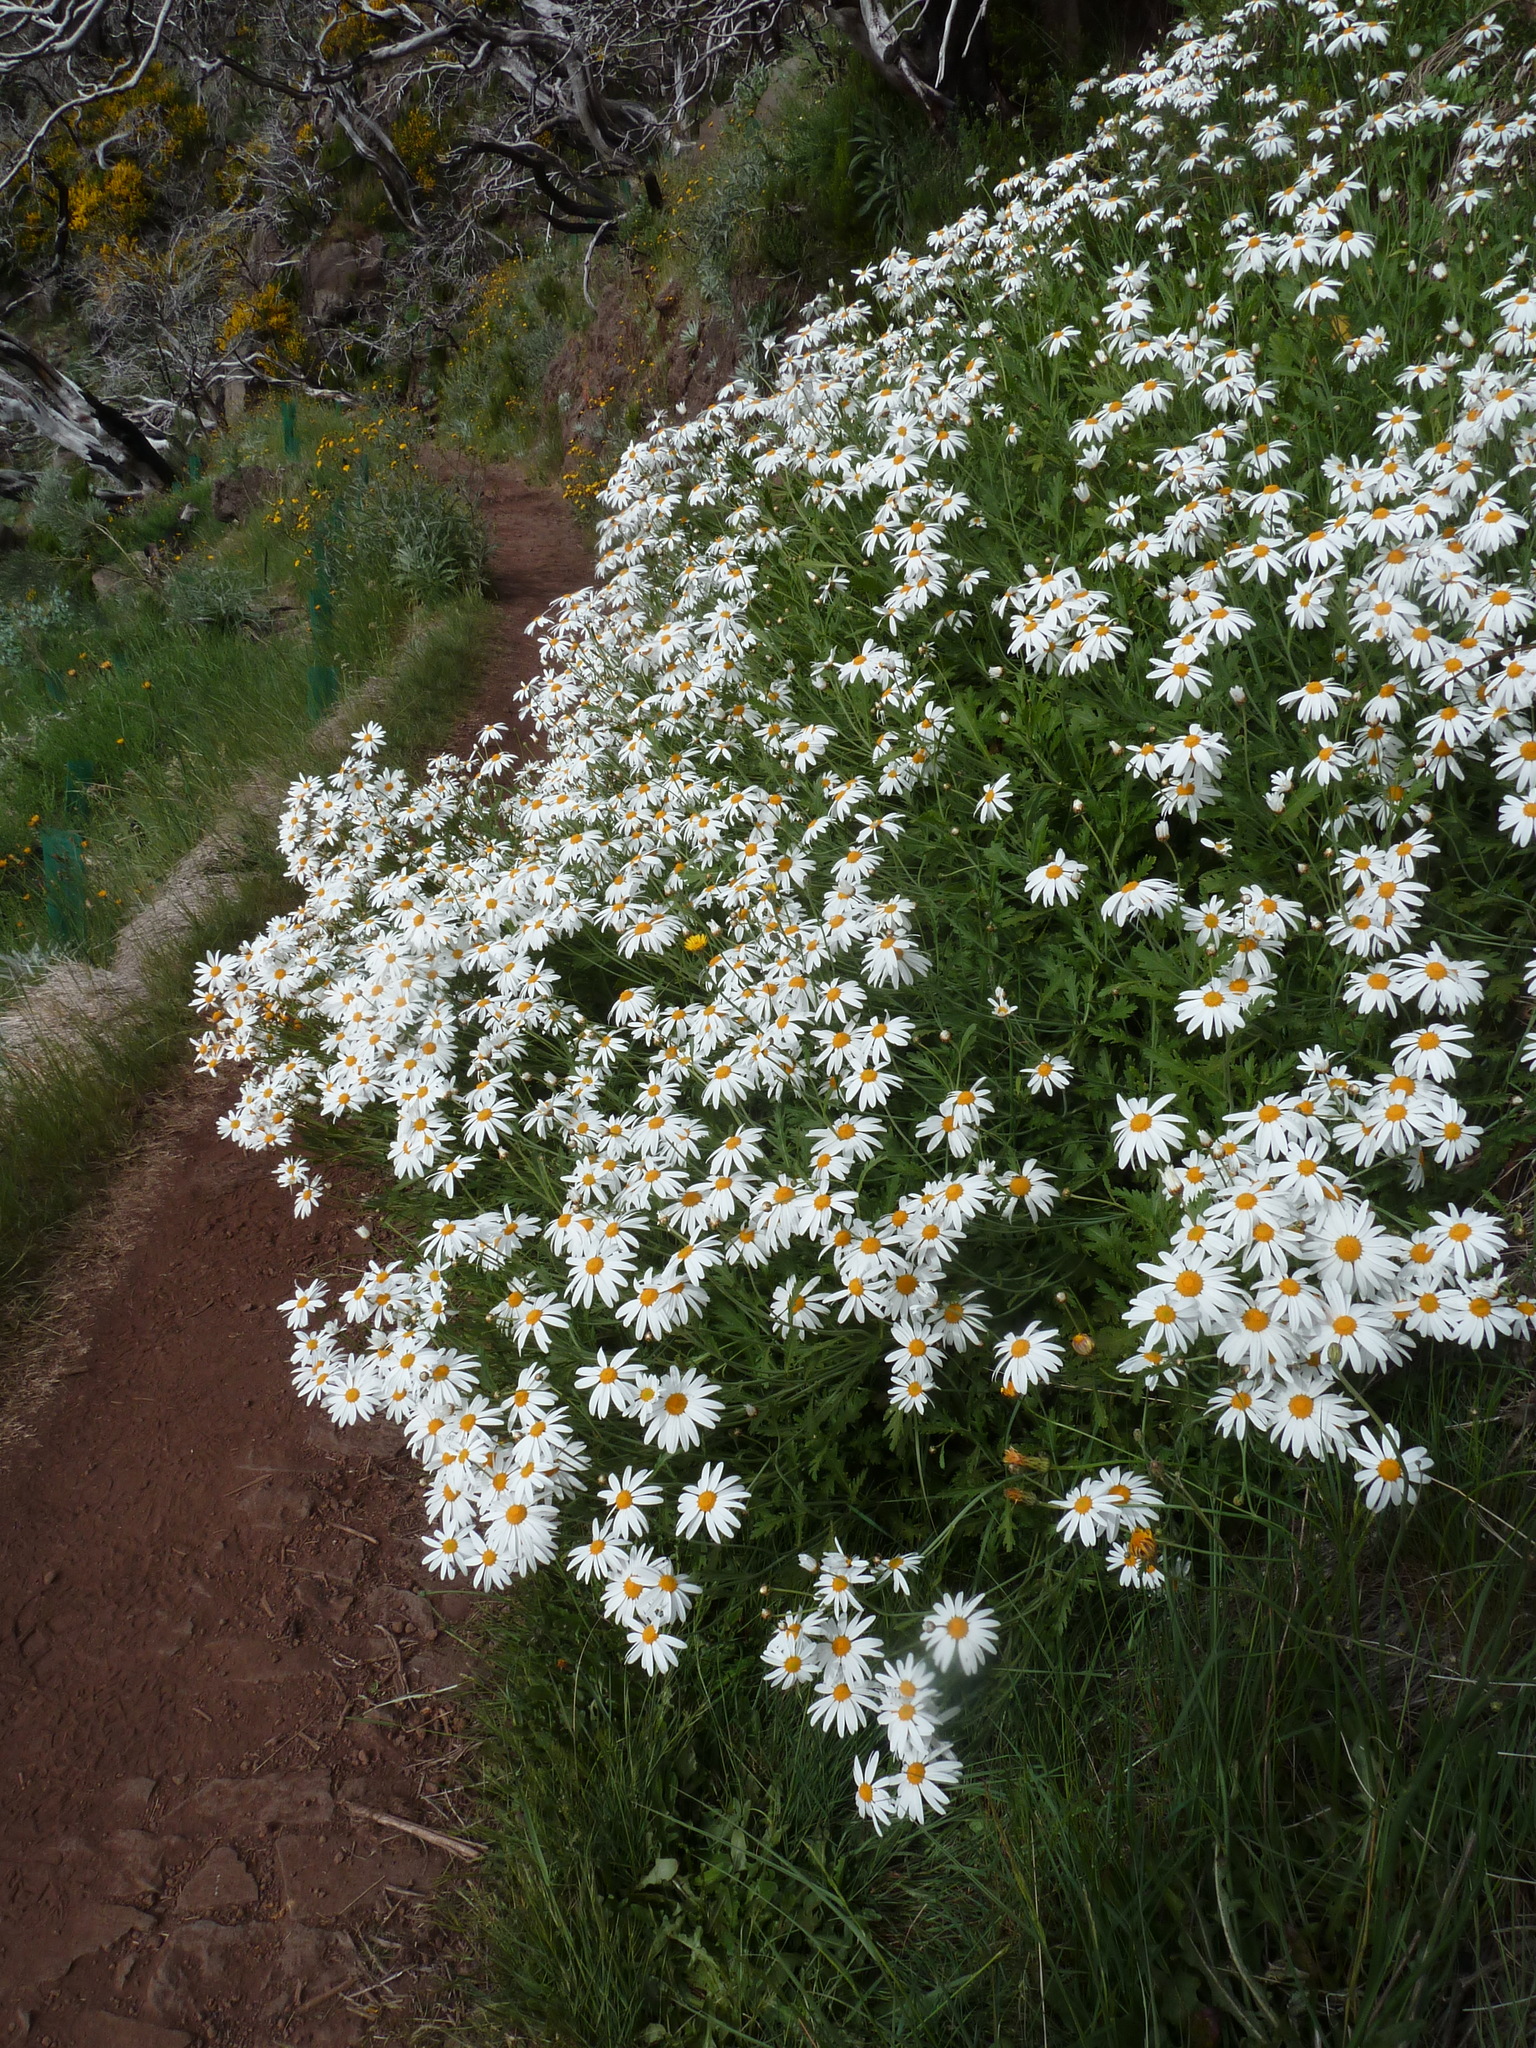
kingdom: Plantae
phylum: Tracheophyta
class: Magnoliopsida
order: Asterales
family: Asteraceae
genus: Argyranthemum
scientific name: Argyranthemum pinnatifidum
